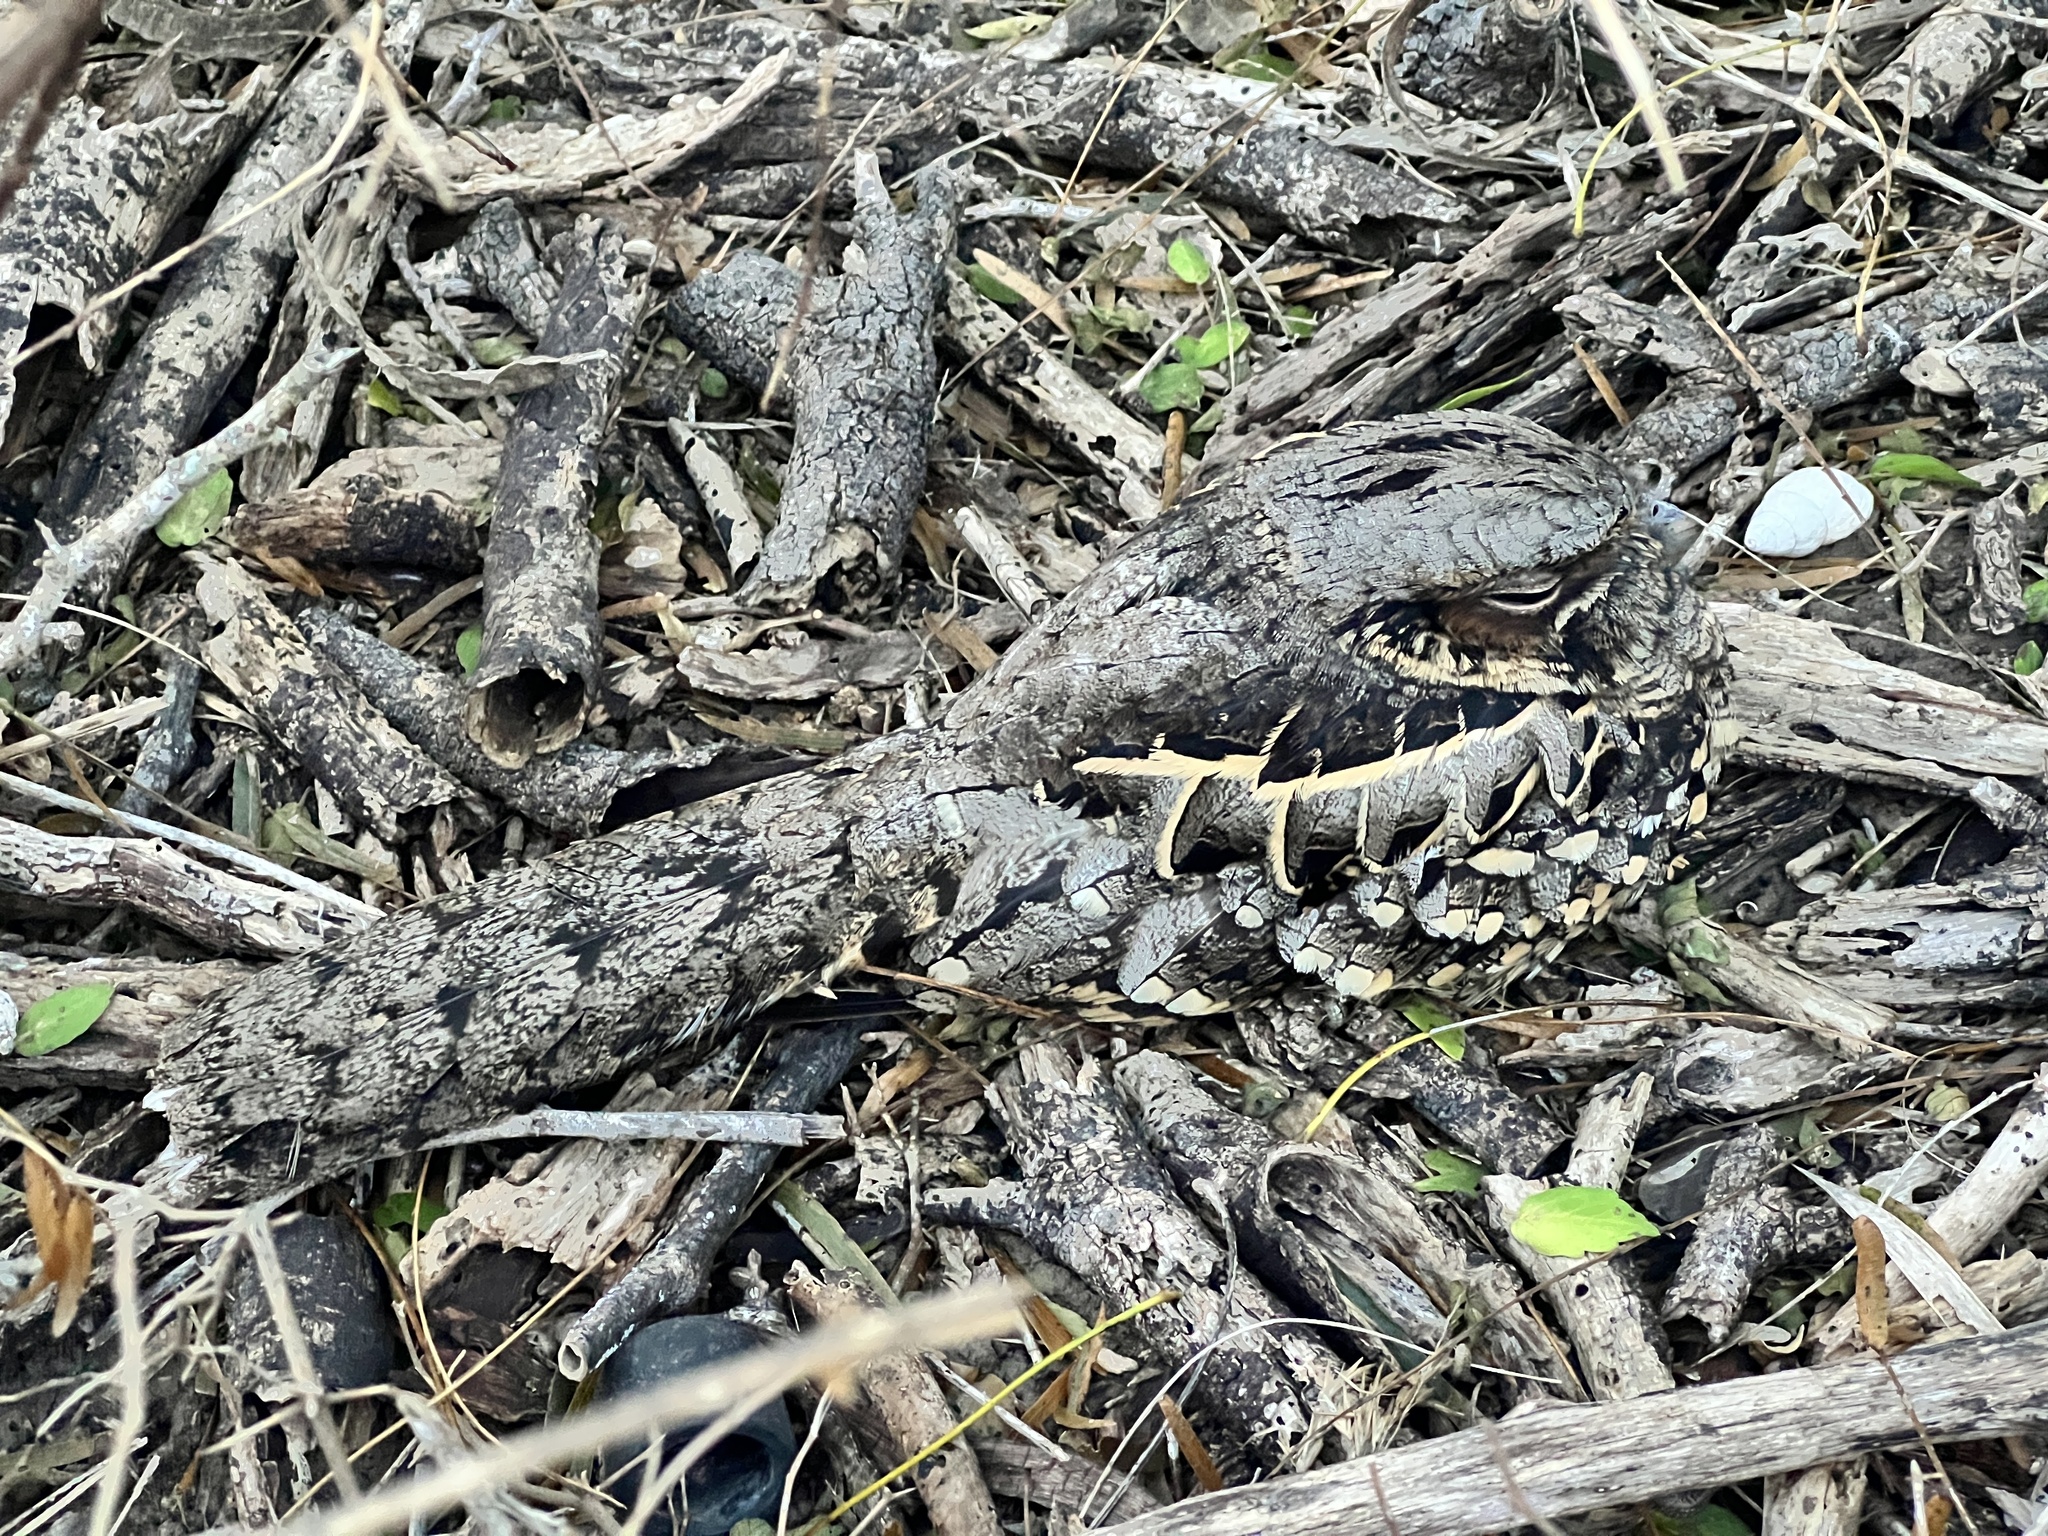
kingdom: Animalia
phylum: Chordata
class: Aves
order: Caprimulgiformes
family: Caprimulgidae
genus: Nyctidromus
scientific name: Nyctidromus albicollis
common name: Pauraque
